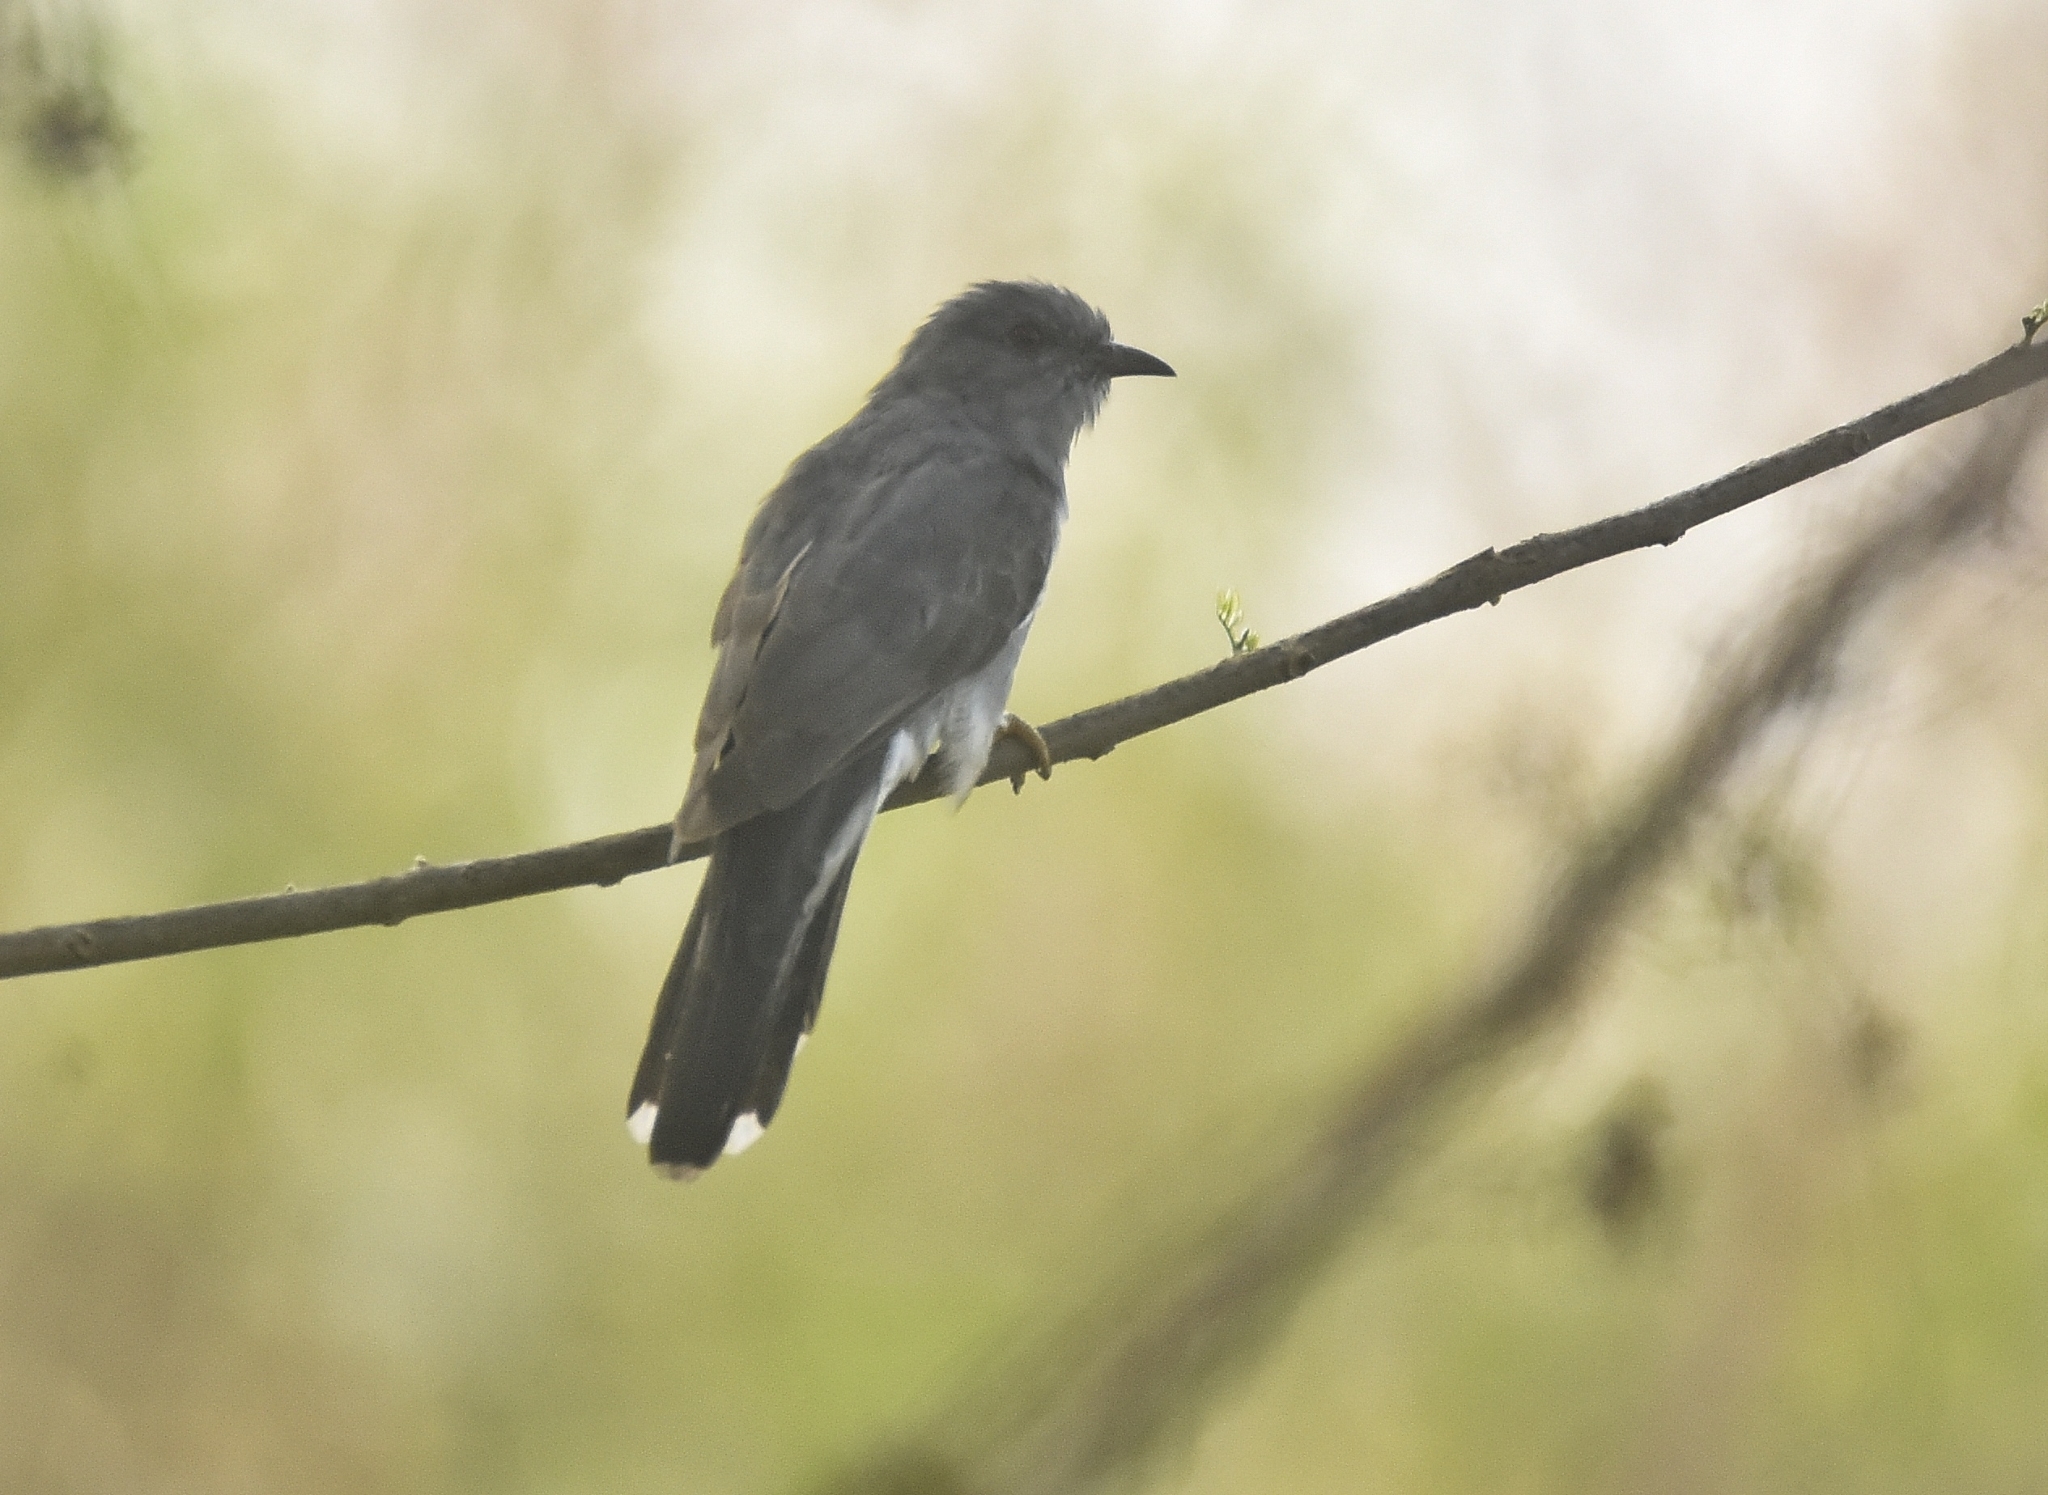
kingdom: Animalia
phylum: Chordata
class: Aves
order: Cuculiformes
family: Cuculidae
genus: Cacomantis
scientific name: Cacomantis passerinus
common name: Grey-bellied cuckoo
